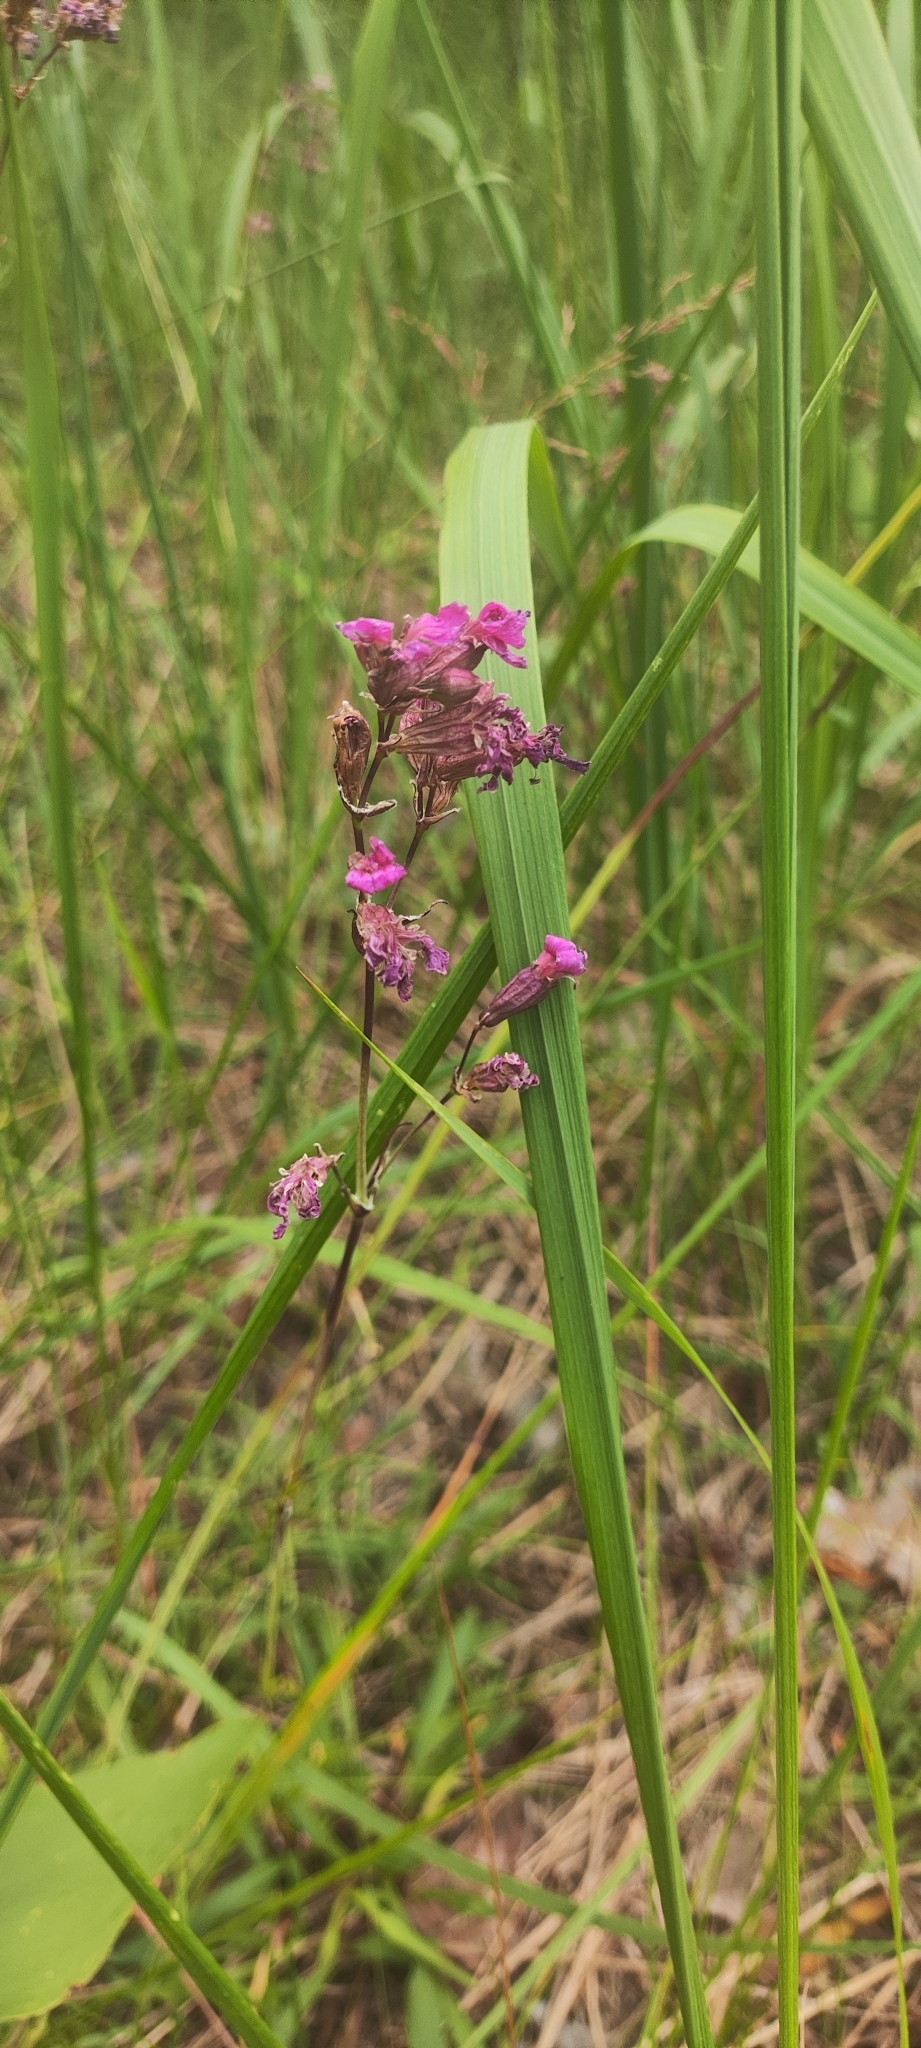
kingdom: Plantae
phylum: Tracheophyta
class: Magnoliopsida
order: Caryophyllales
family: Caryophyllaceae
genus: Viscaria
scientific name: Viscaria vulgaris
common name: Clammy campion
